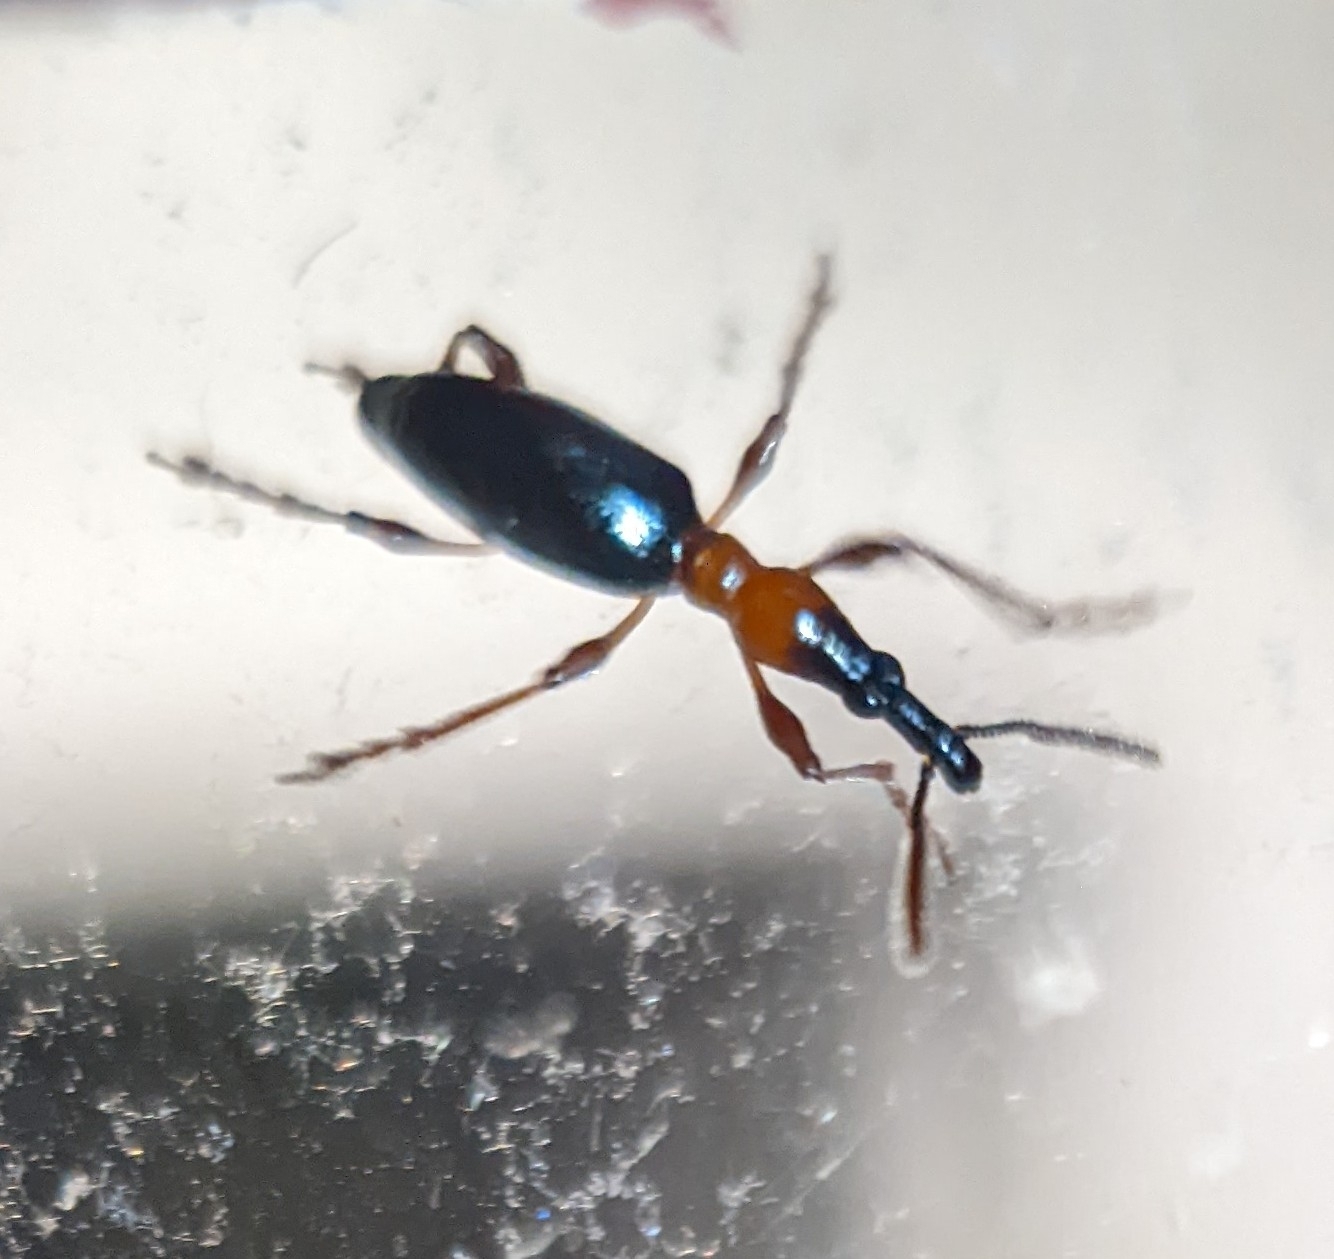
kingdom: Animalia
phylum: Arthropoda
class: Insecta
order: Coleoptera
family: Brentidae
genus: Cylas
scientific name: Cylas formicarius
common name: Sweetpotato weevil
